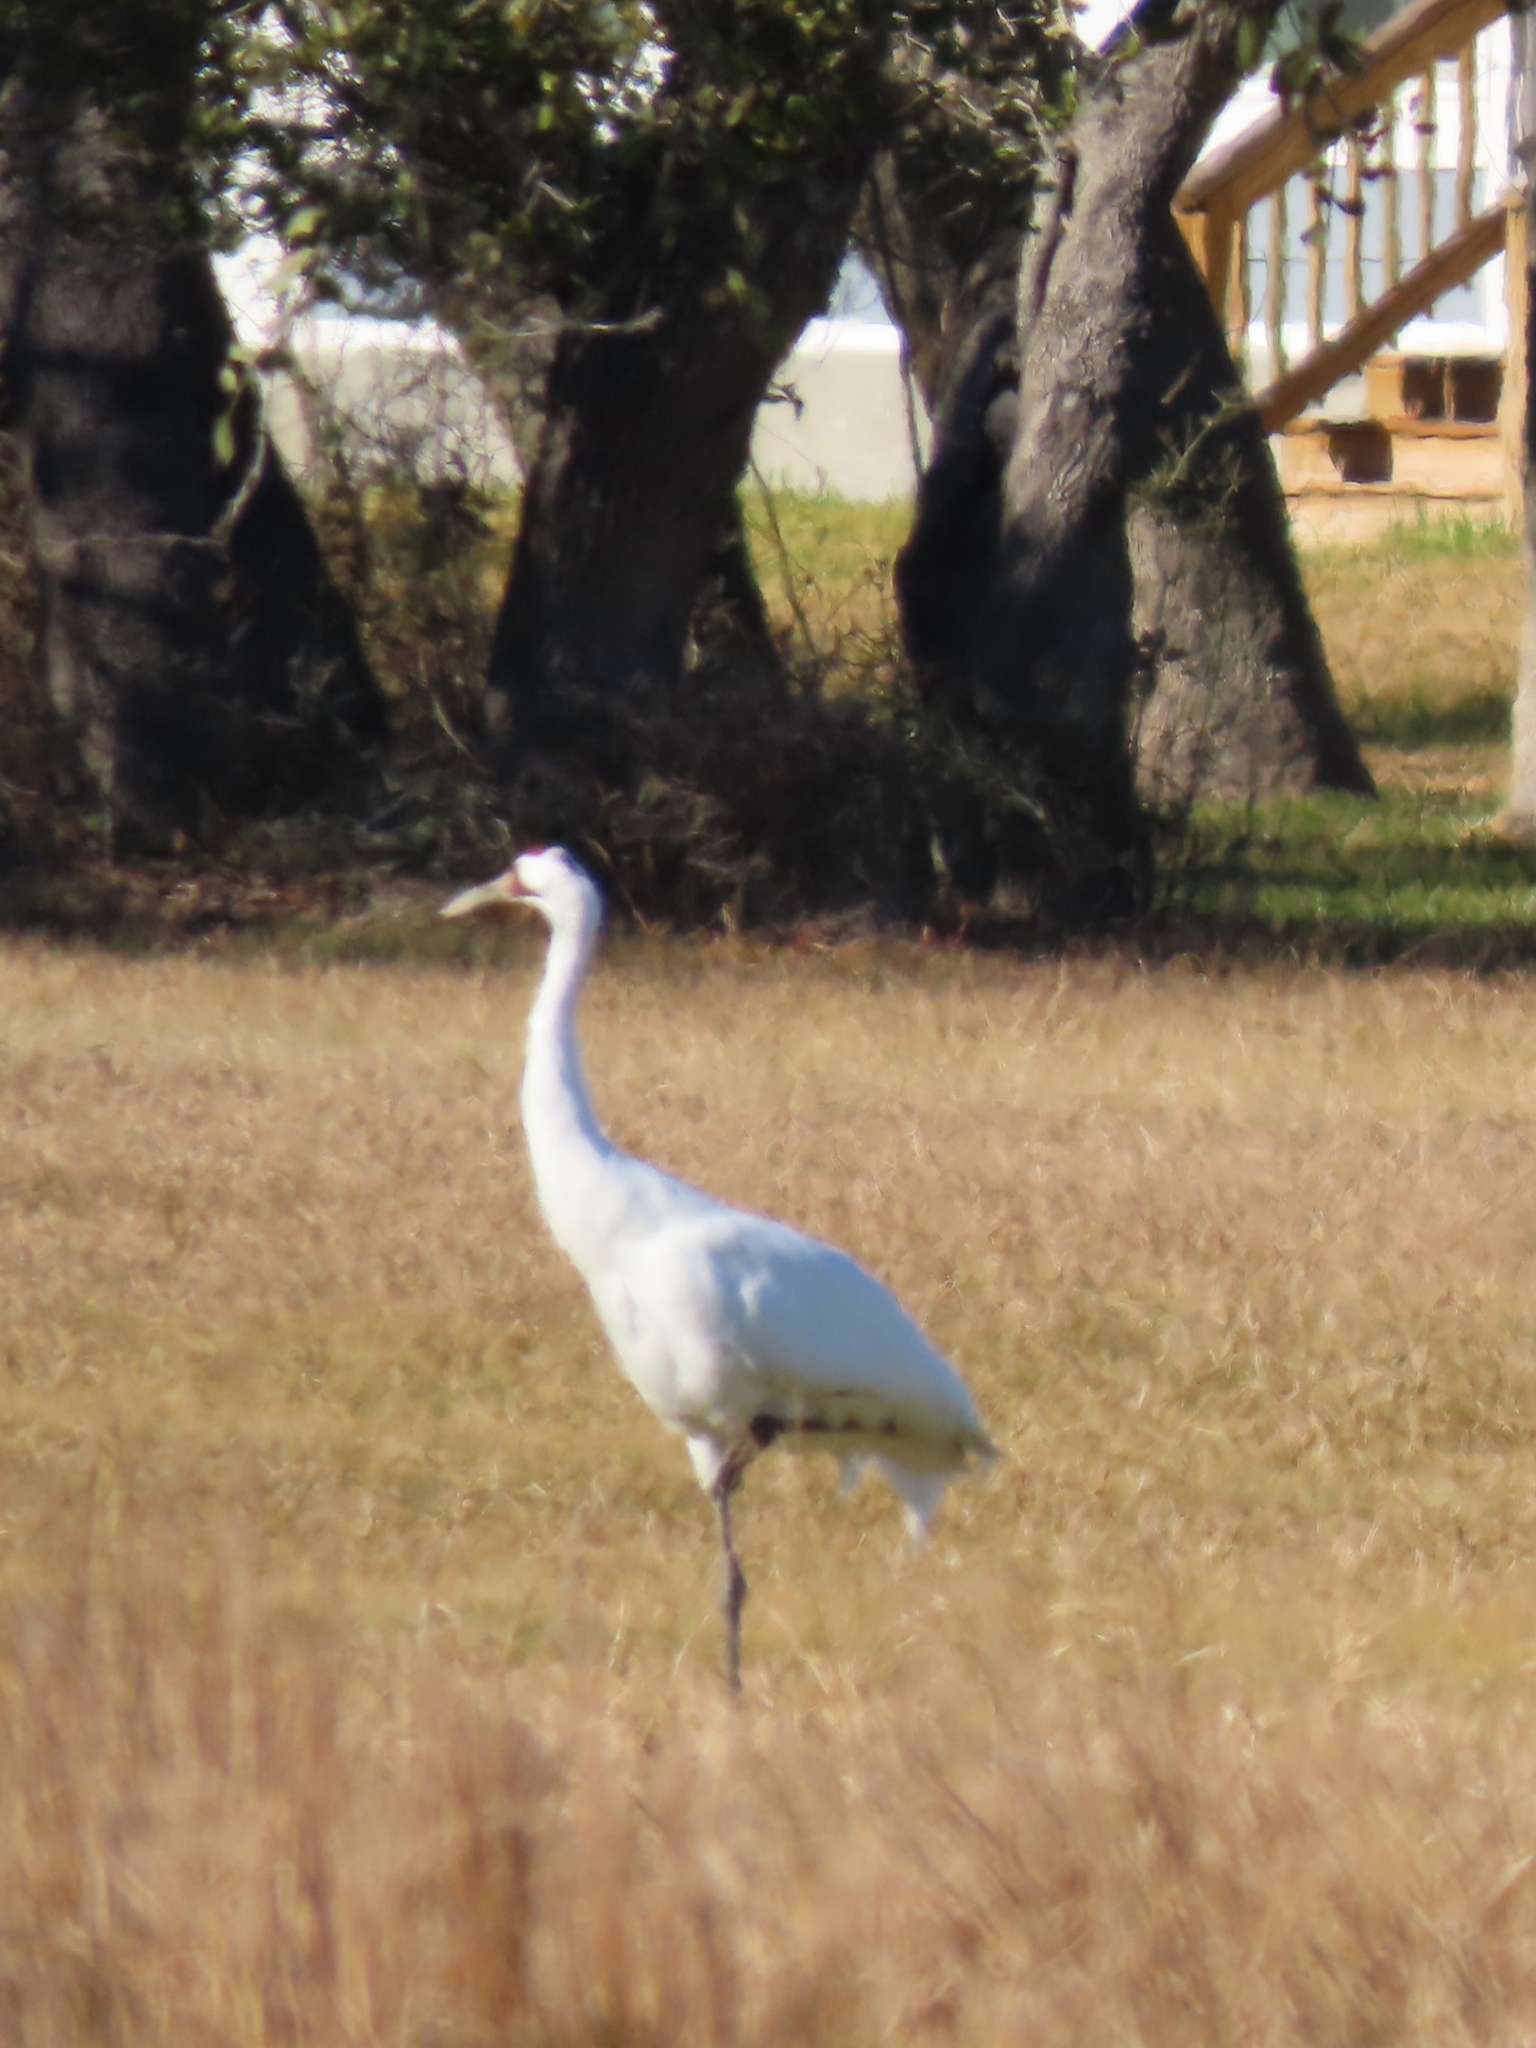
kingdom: Animalia
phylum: Chordata
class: Aves
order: Gruiformes
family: Gruidae
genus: Grus
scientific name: Grus canadensis
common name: Sandhill crane
